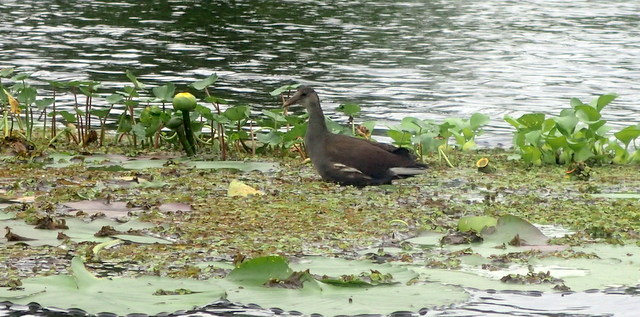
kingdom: Animalia
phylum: Chordata
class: Aves
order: Gruiformes
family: Rallidae
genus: Gallinula
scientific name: Gallinula chloropus
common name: Common moorhen
